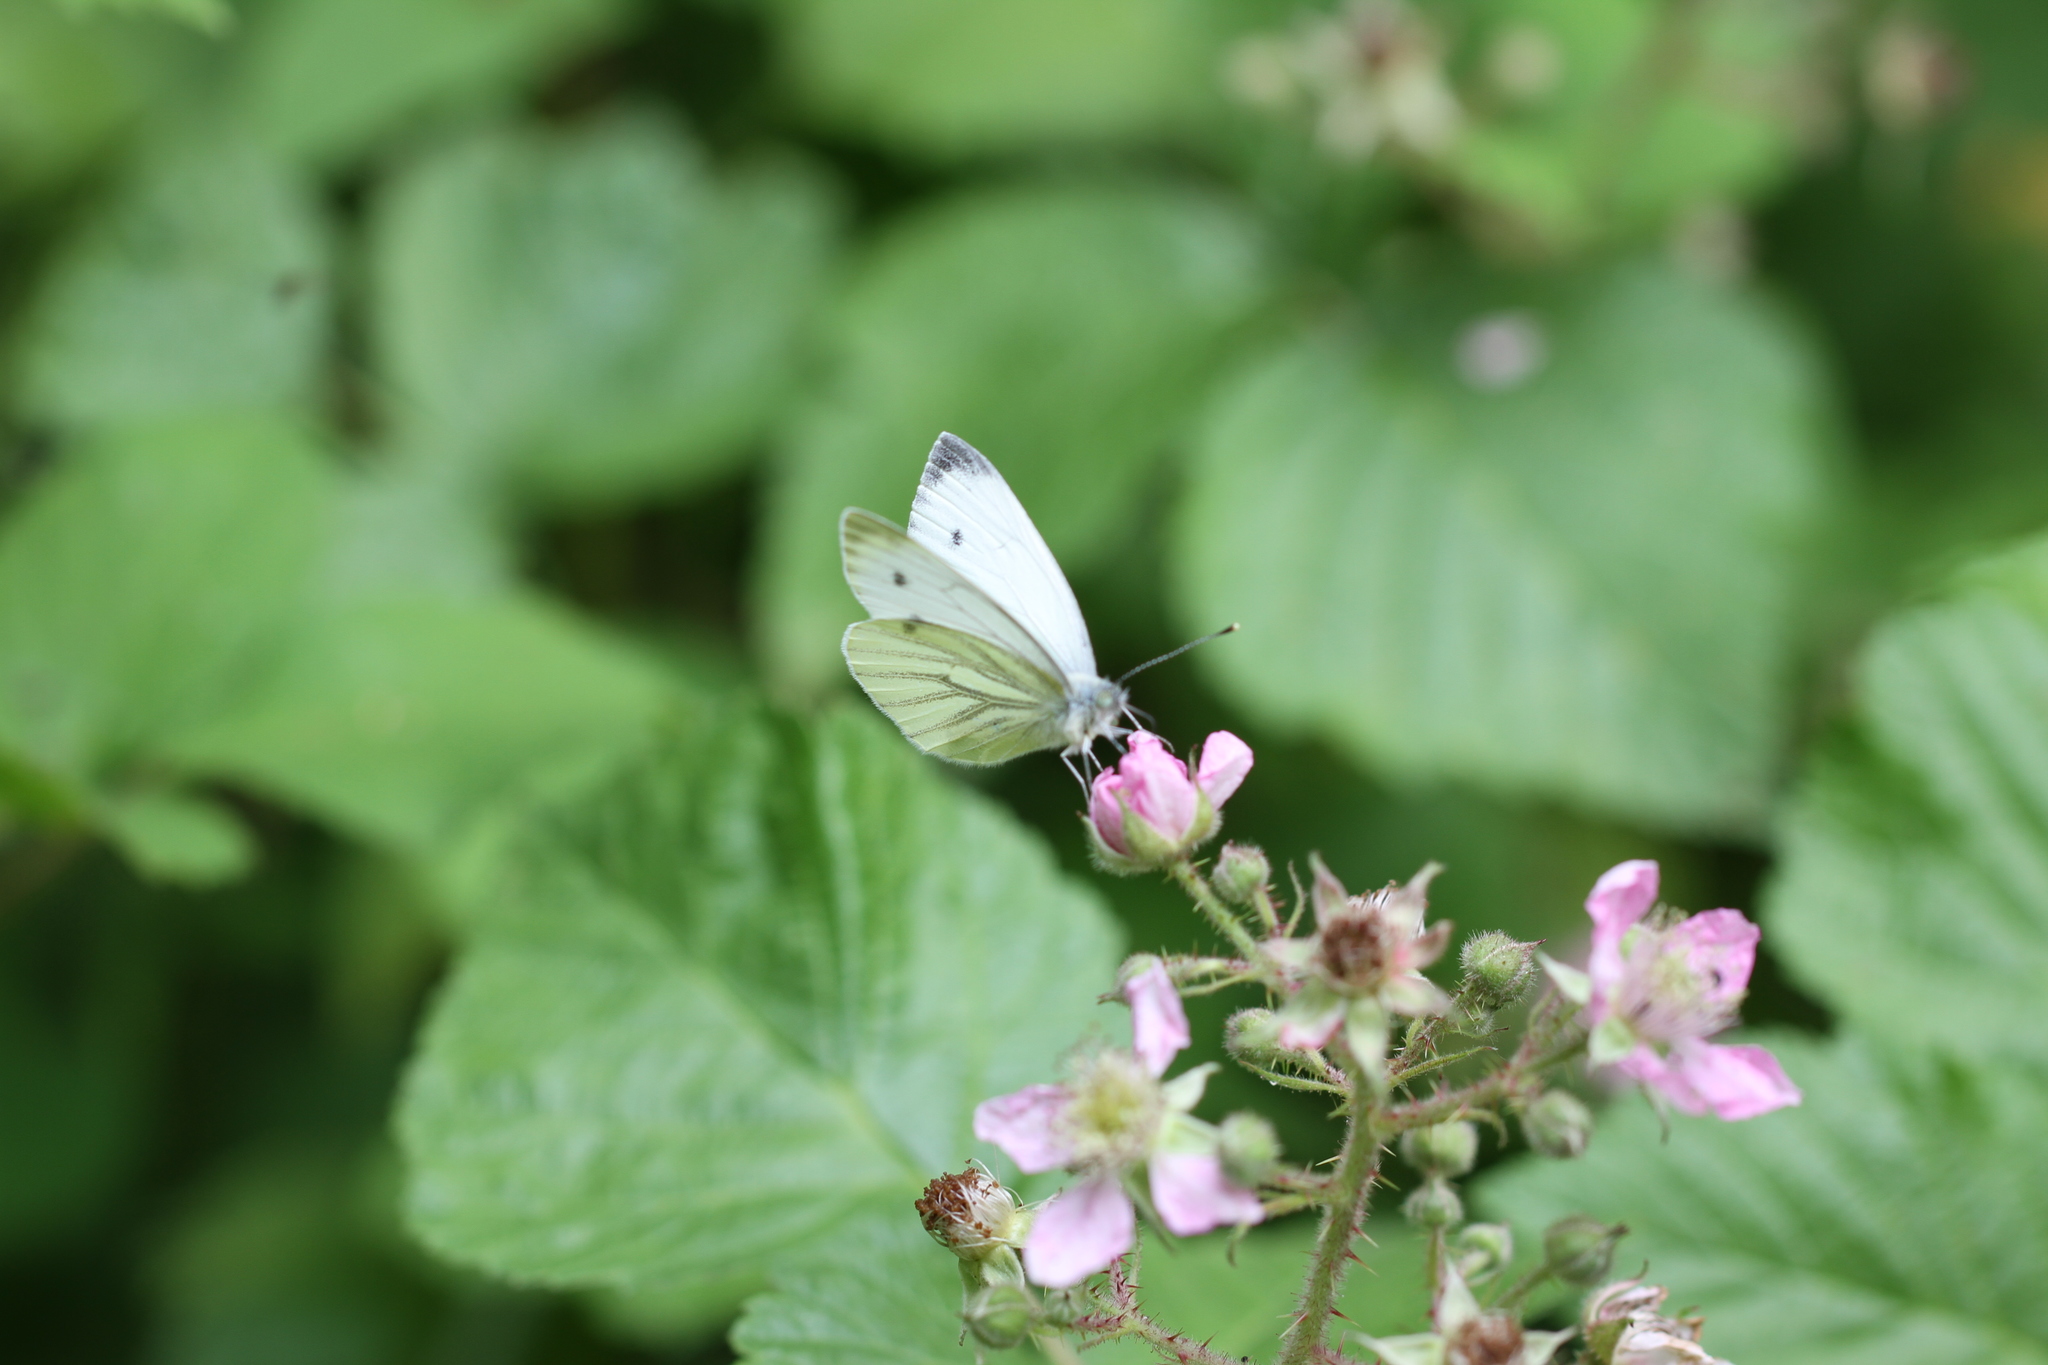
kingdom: Animalia
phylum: Arthropoda
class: Insecta
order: Lepidoptera
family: Pieridae
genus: Pieris
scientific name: Pieris napi
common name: Green-veined white
